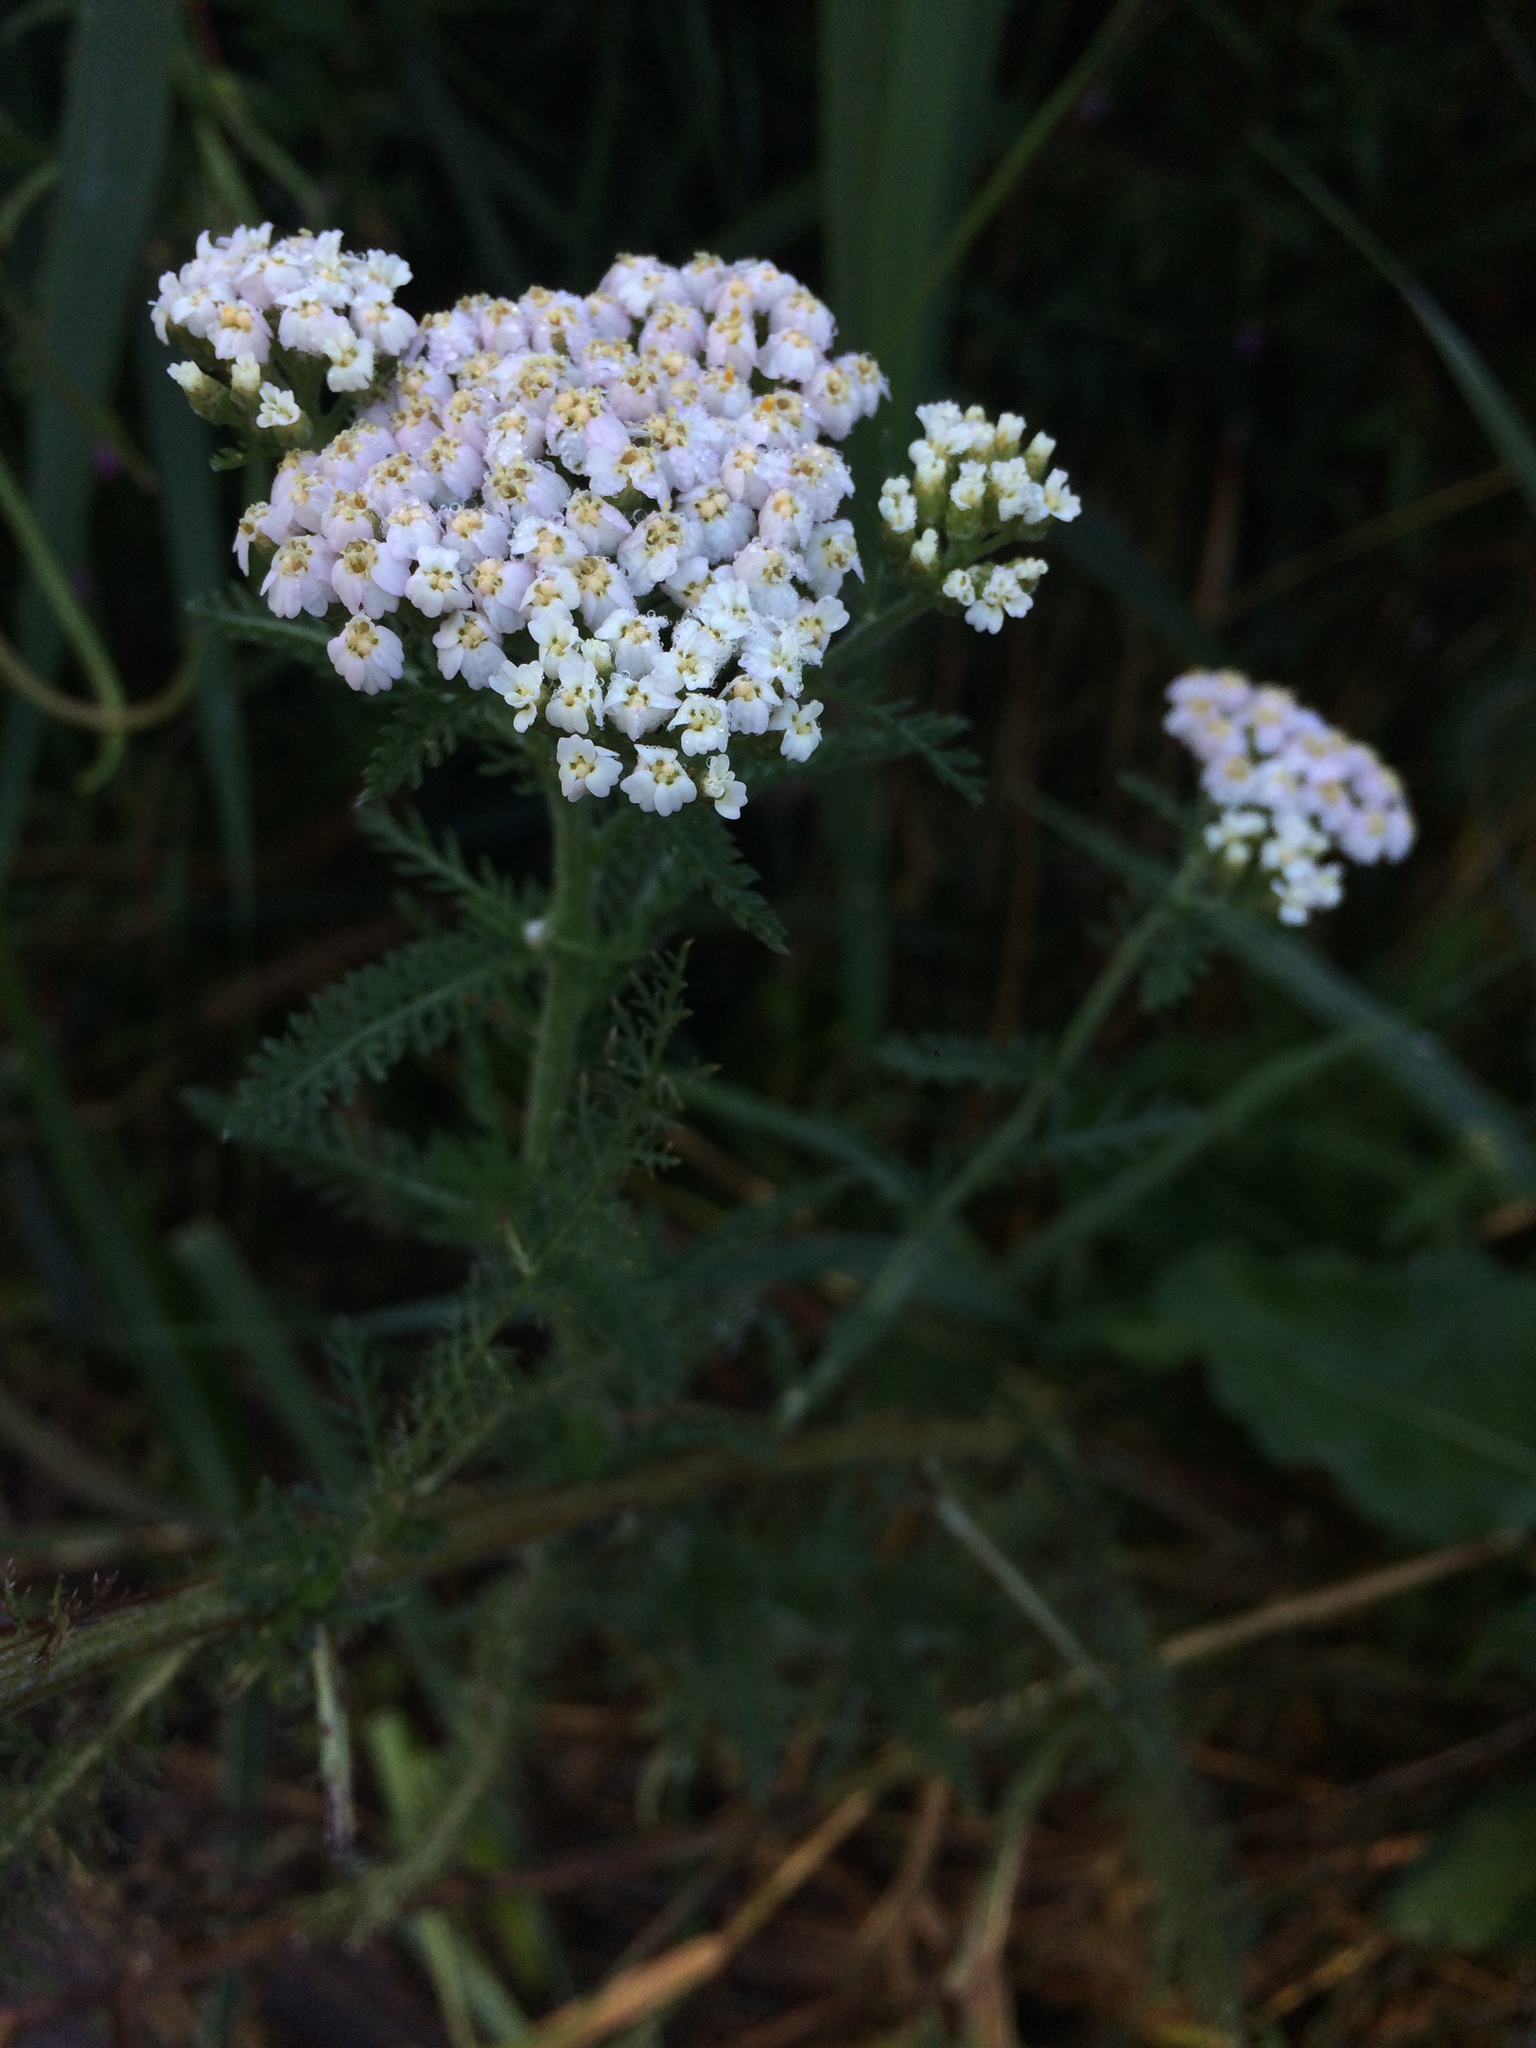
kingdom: Plantae
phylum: Tracheophyta
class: Magnoliopsida
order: Asterales
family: Asteraceae
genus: Achillea
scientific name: Achillea millefolium
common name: Yarrow
